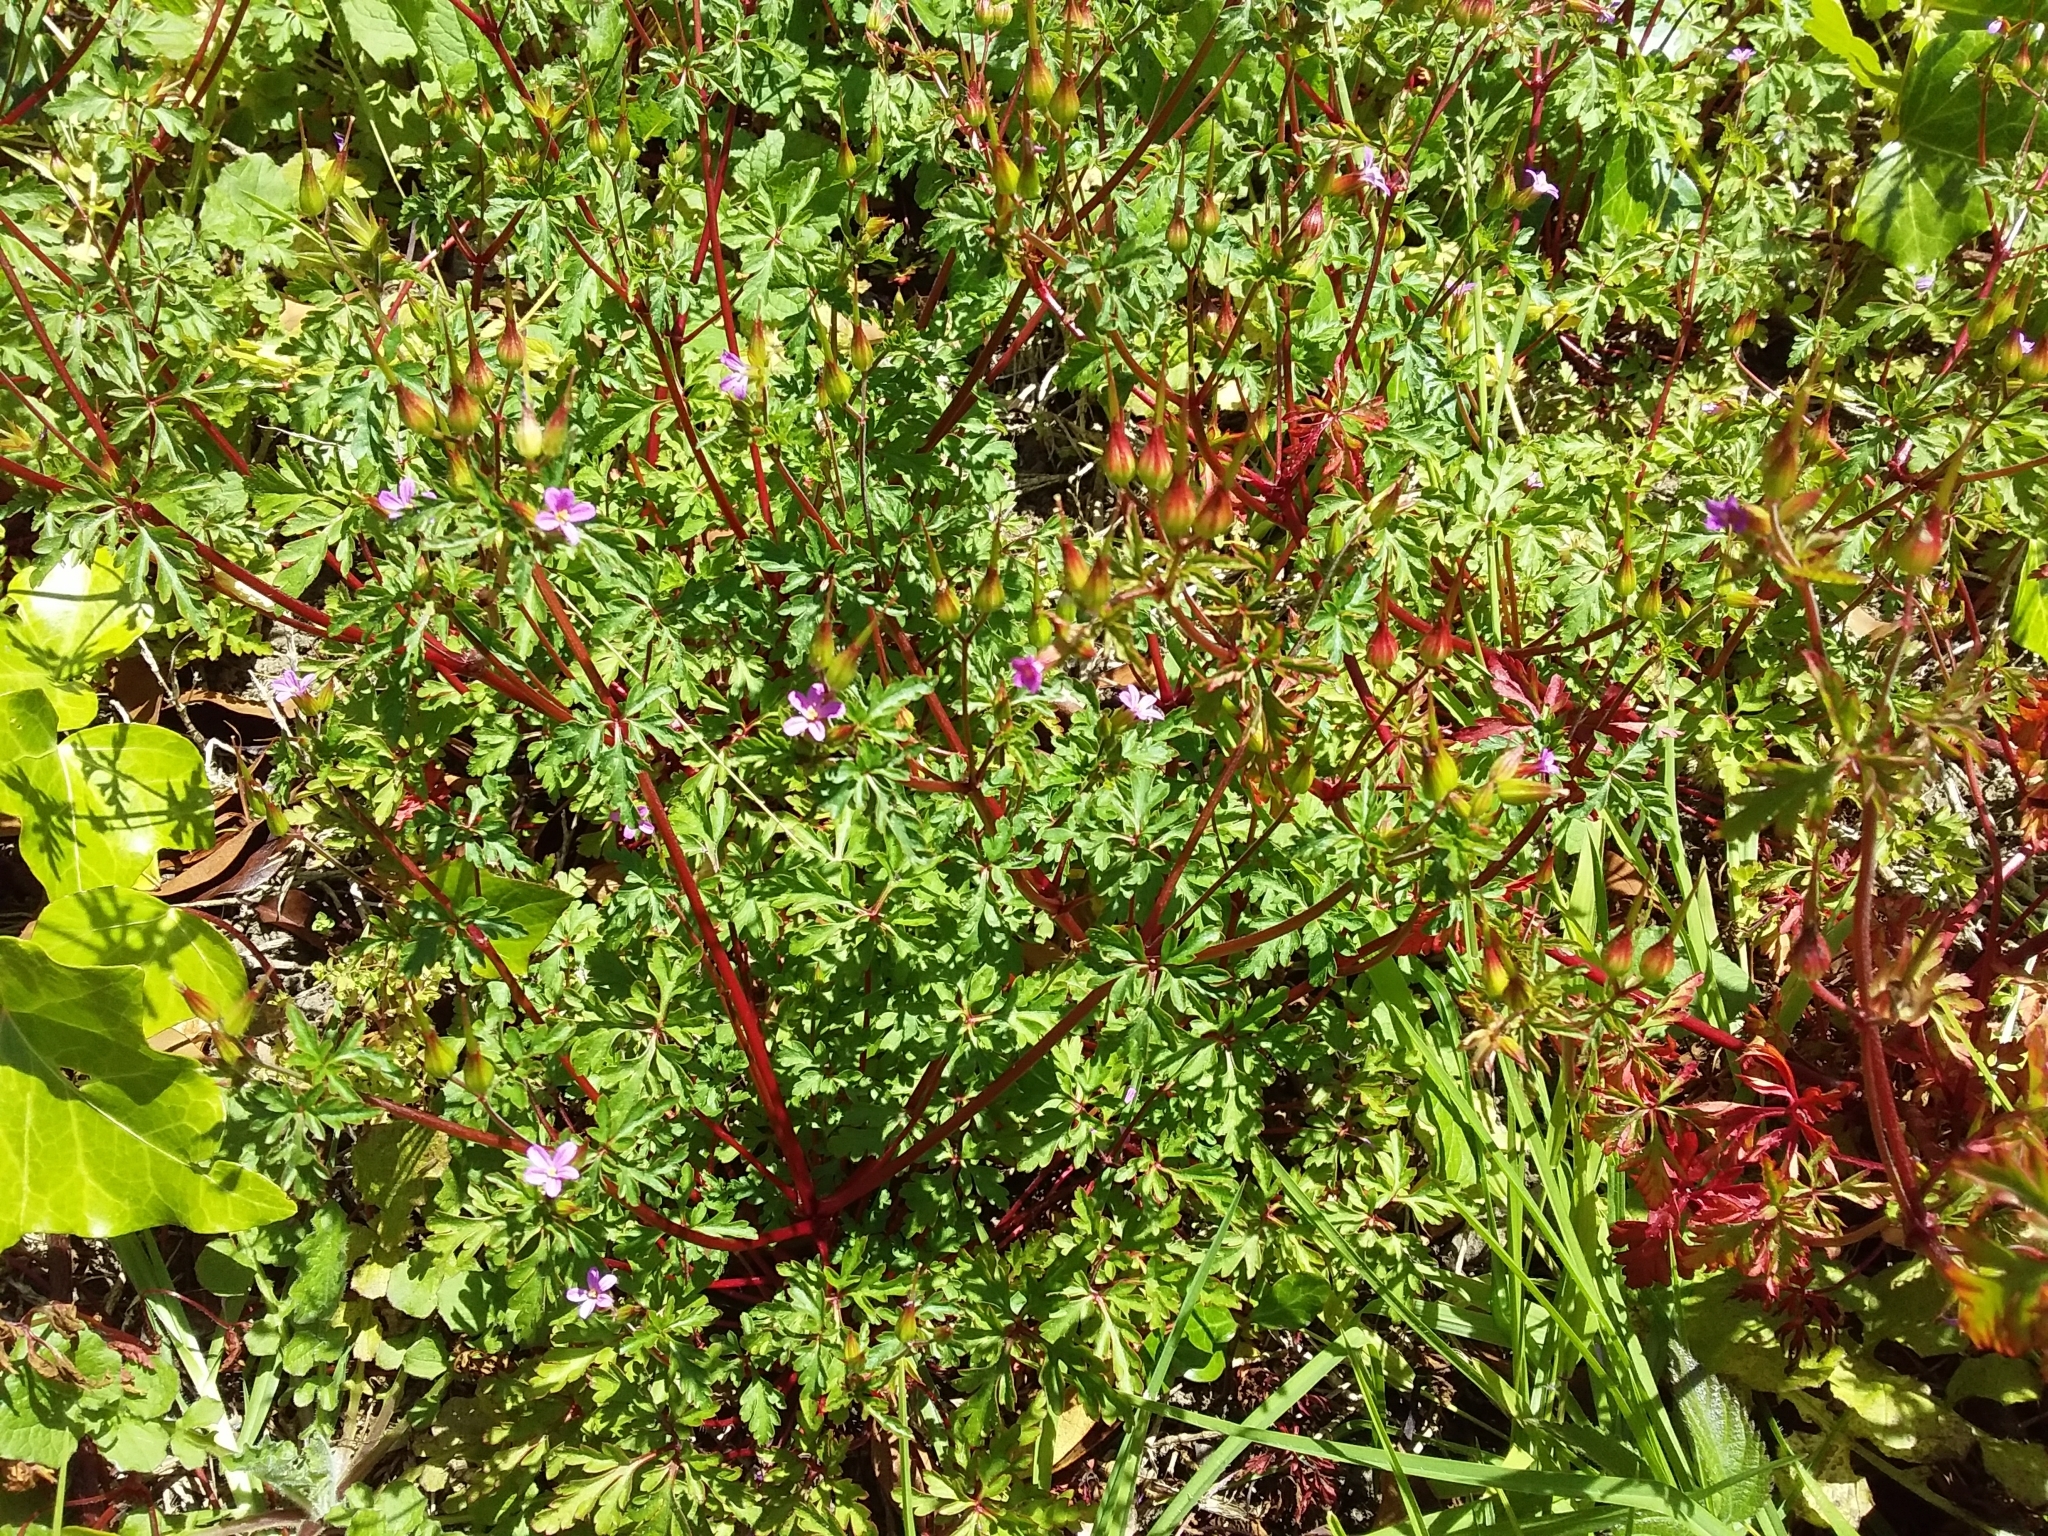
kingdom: Plantae
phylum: Tracheophyta
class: Magnoliopsida
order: Geraniales
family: Geraniaceae
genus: Geranium
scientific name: Geranium robertianum
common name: Herb-robert
